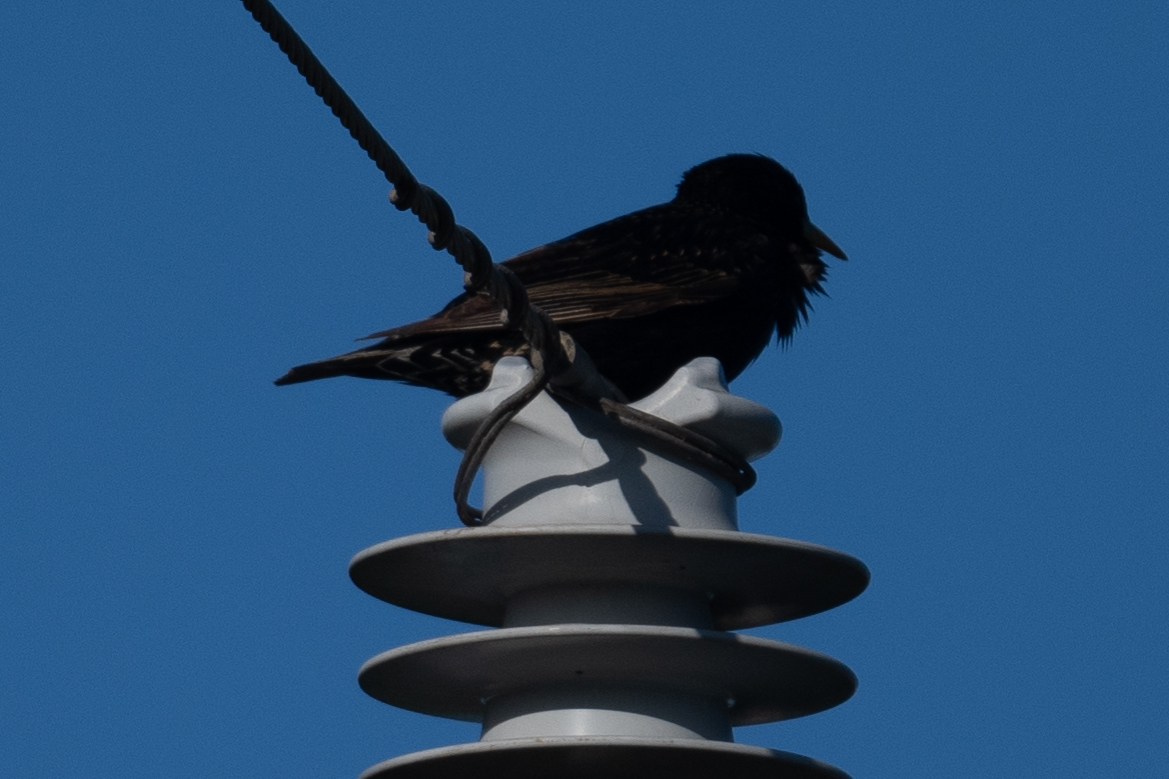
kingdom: Animalia
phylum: Chordata
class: Aves
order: Passeriformes
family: Sturnidae
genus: Sturnus
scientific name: Sturnus vulgaris
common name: Common starling
